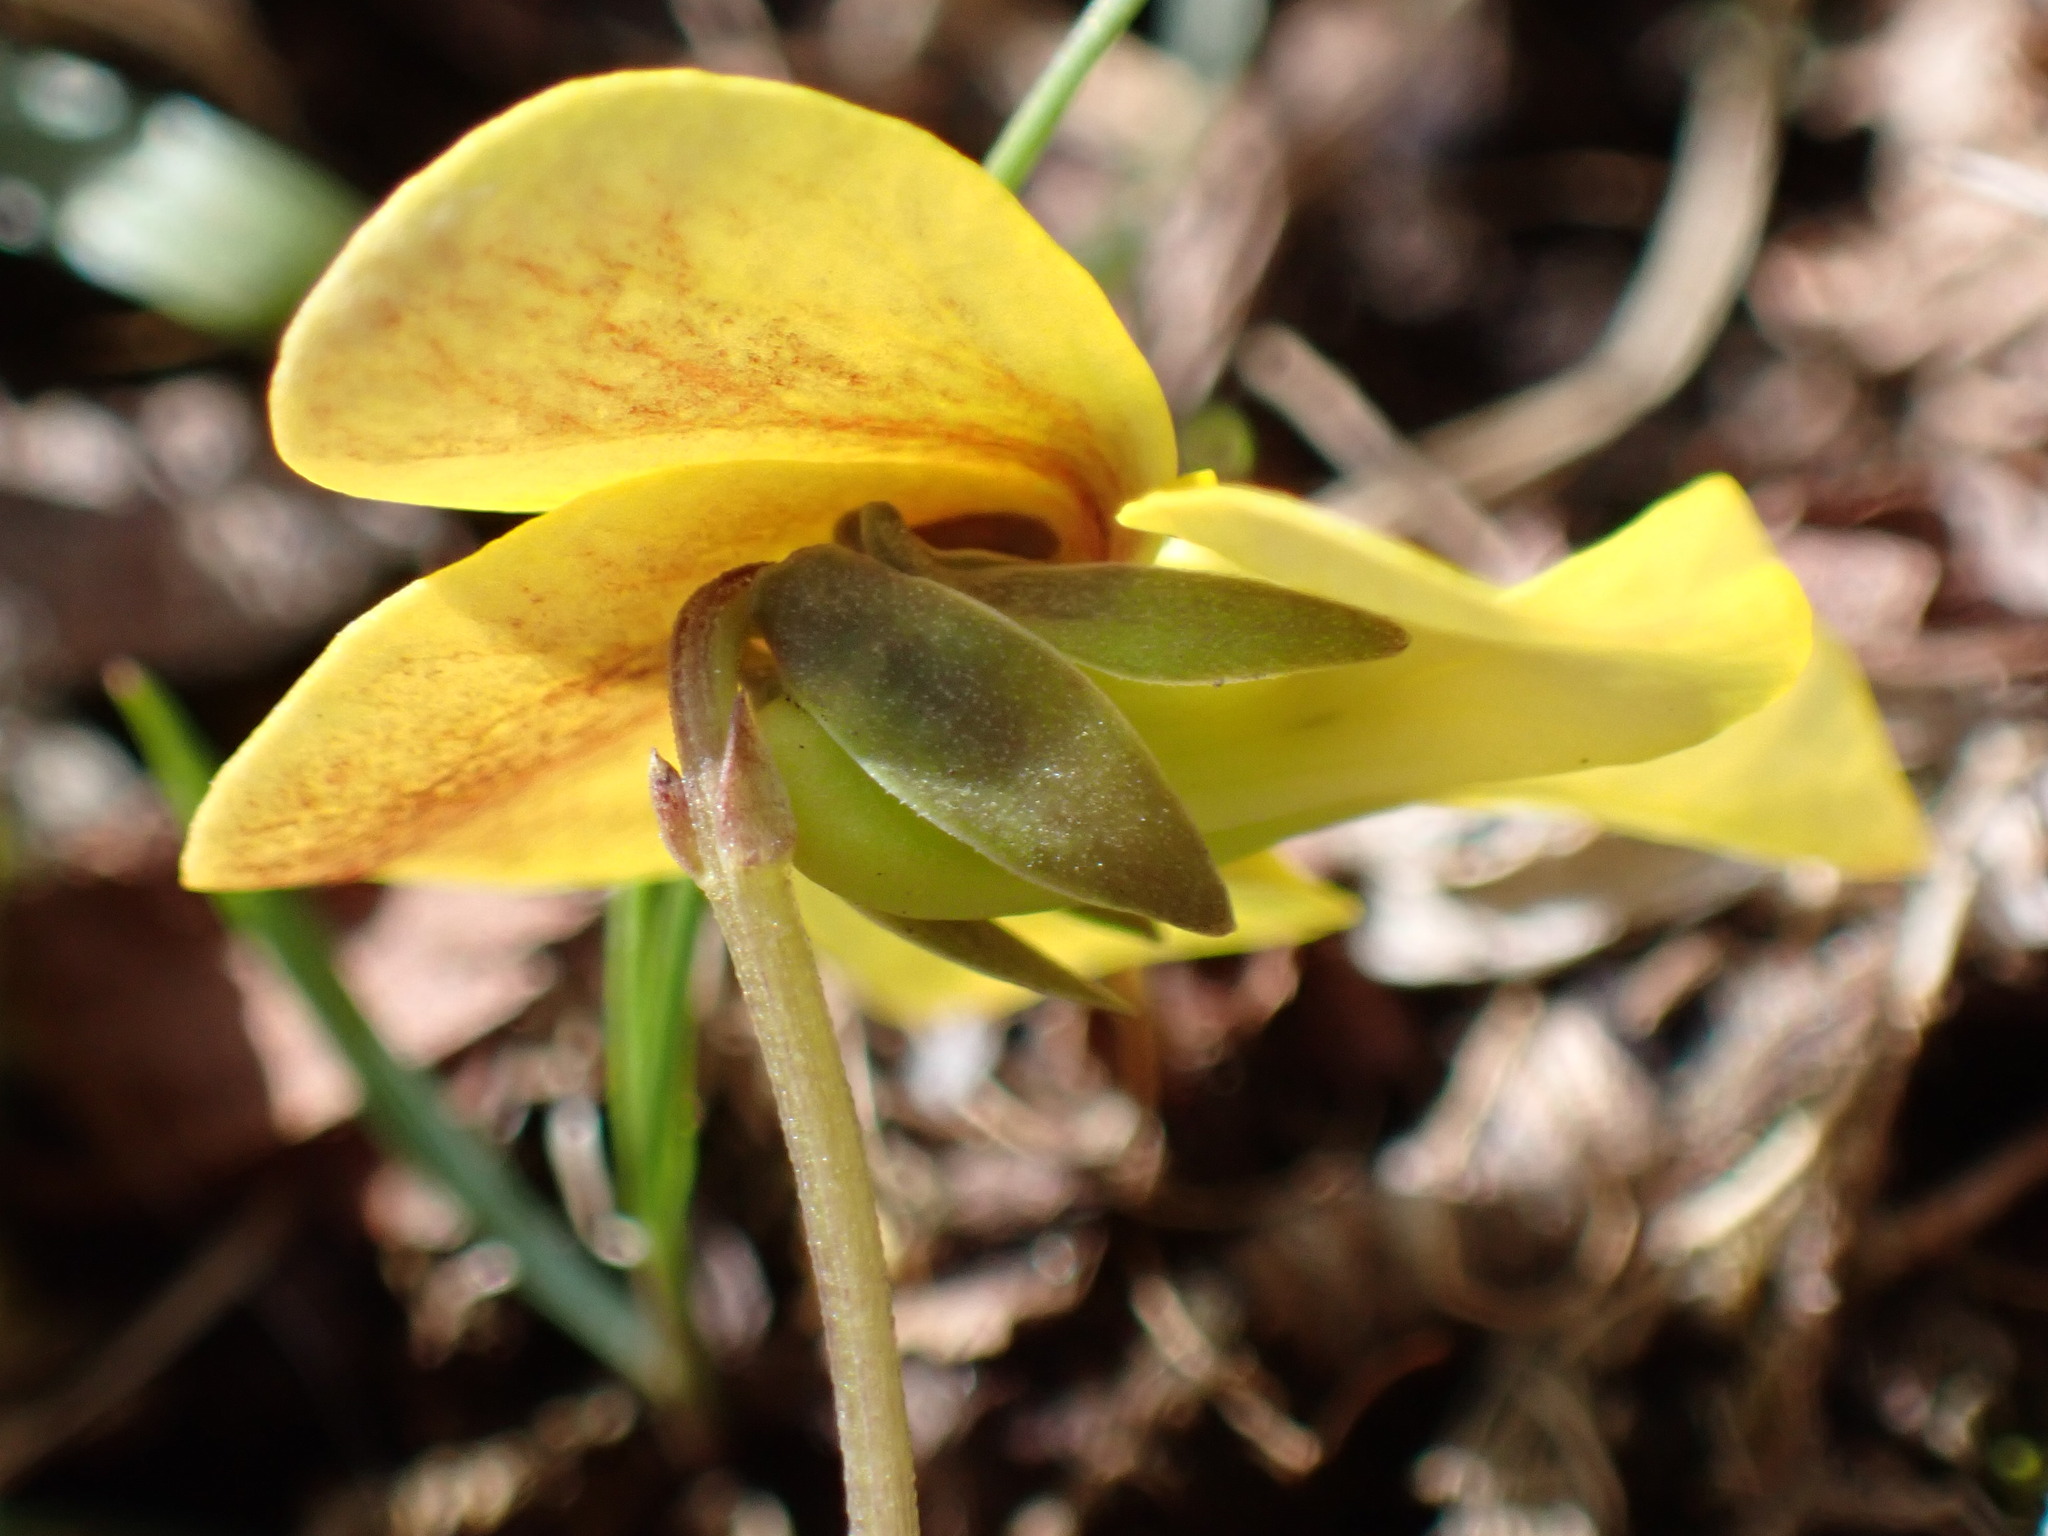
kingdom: Plantae
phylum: Tracheophyta
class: Magnoliopsida
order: Malpighiales
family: Violaceae
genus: Viola
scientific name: Viola orientalis
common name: Golden violet
